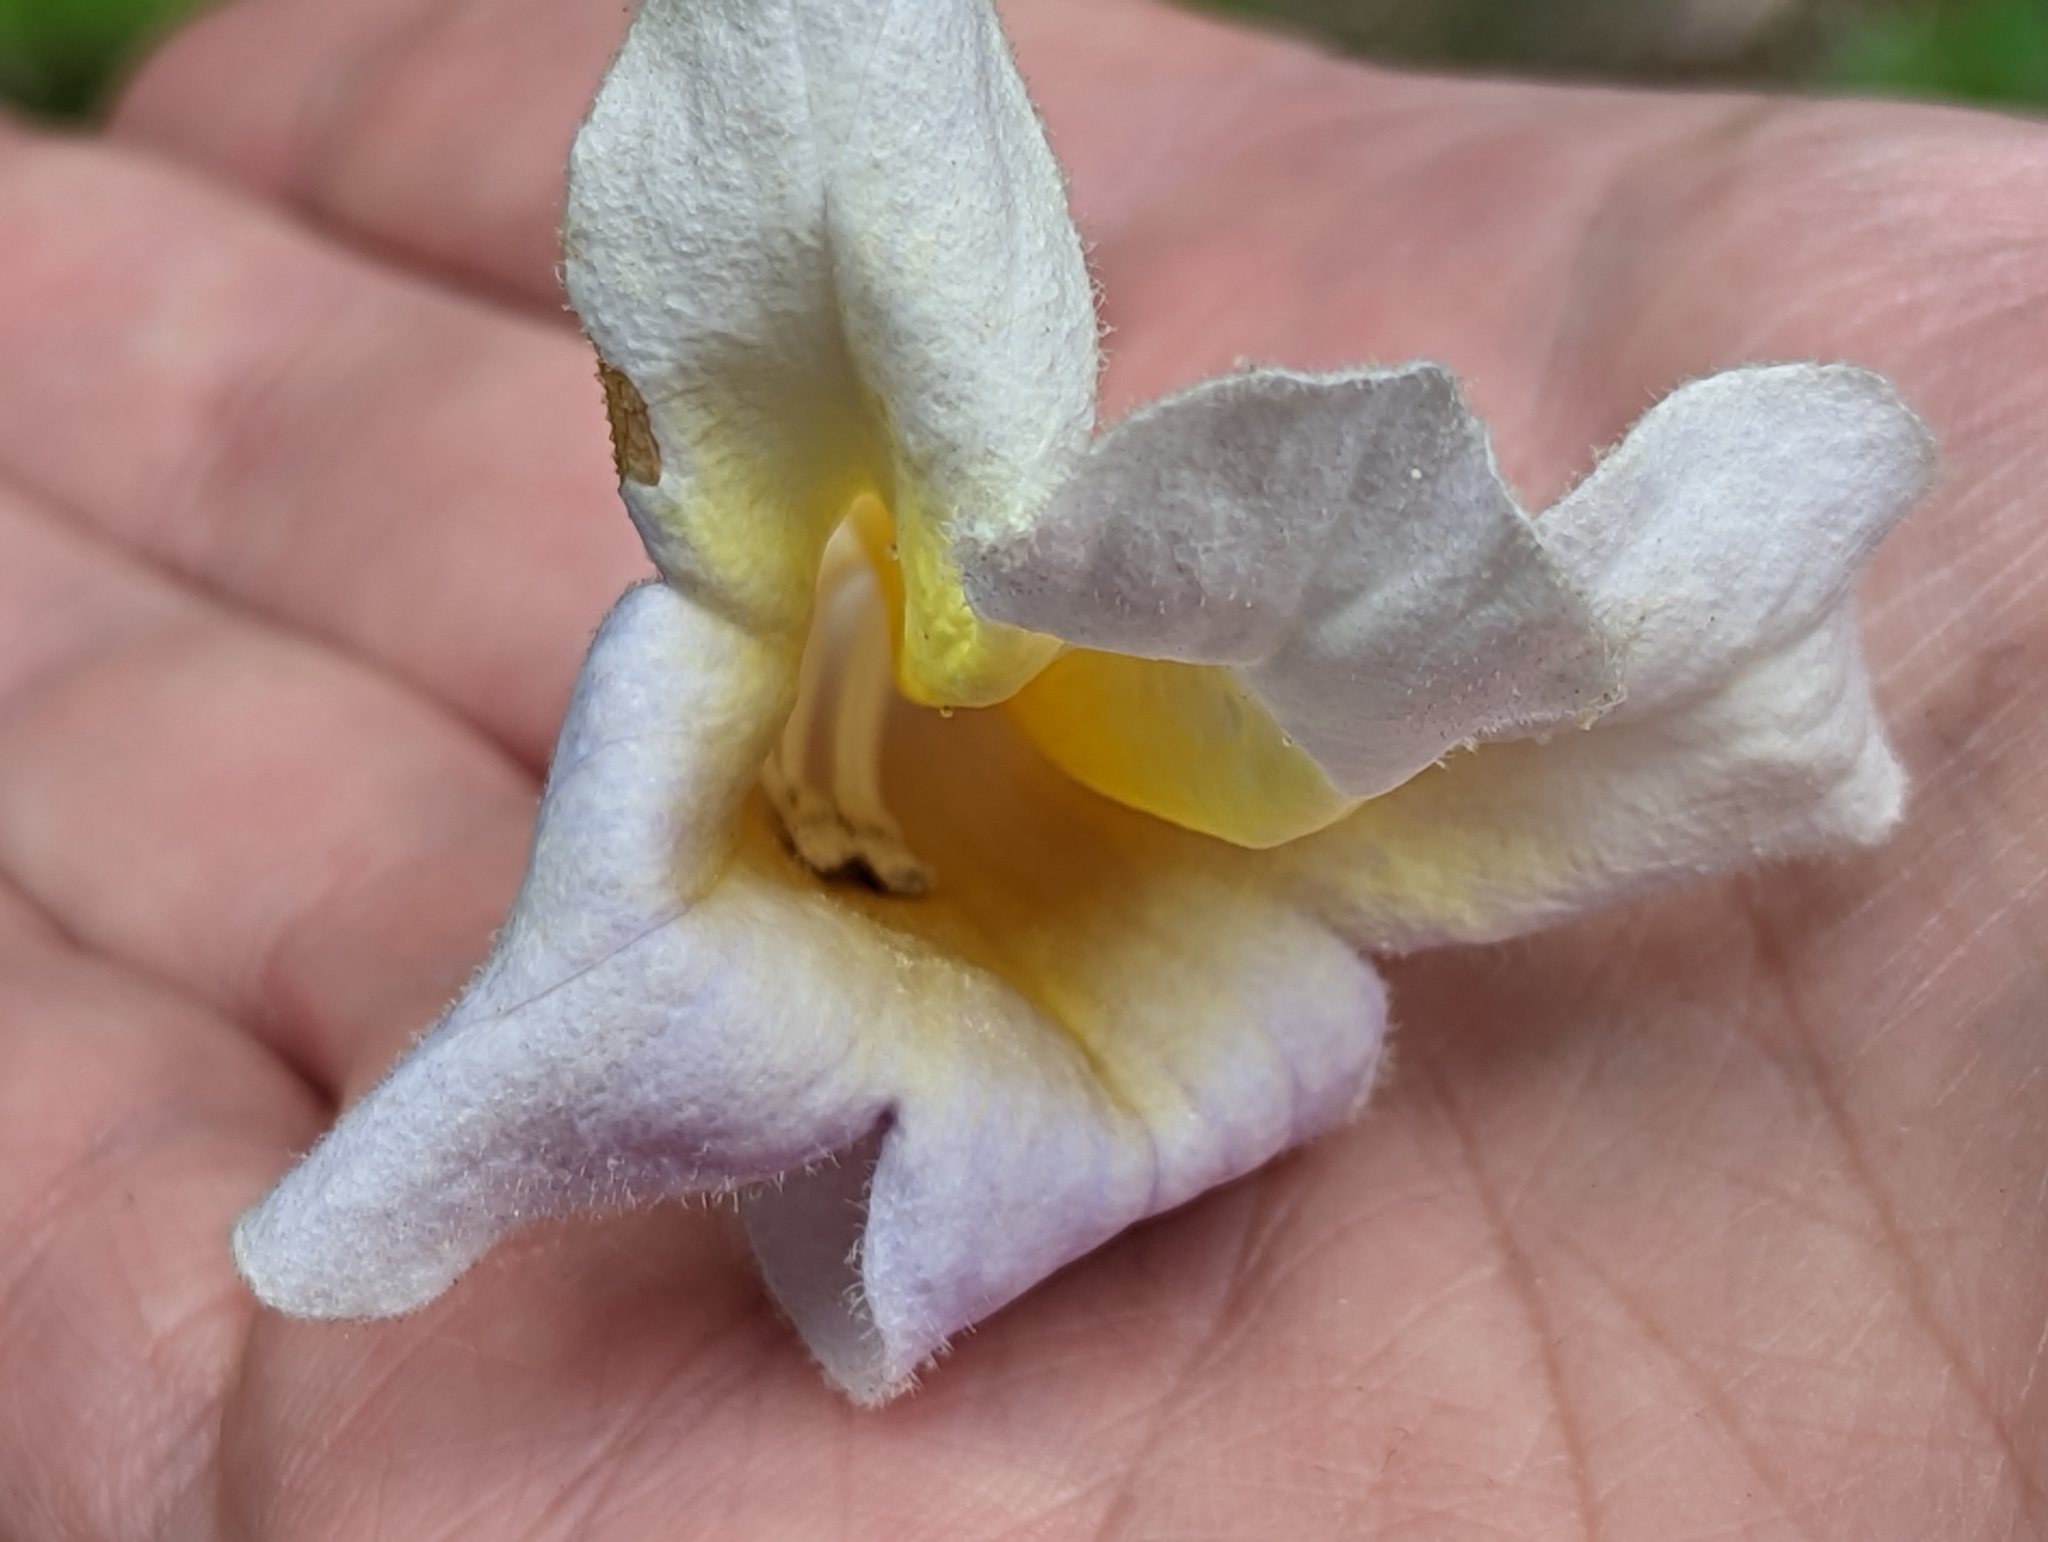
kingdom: Plantae
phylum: Tracheophyta
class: Magnoliopsida
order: Lamiales
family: Paulowniaceae
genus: Paulownia
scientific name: Paulownia tomentosa
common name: Foxglove-tree
